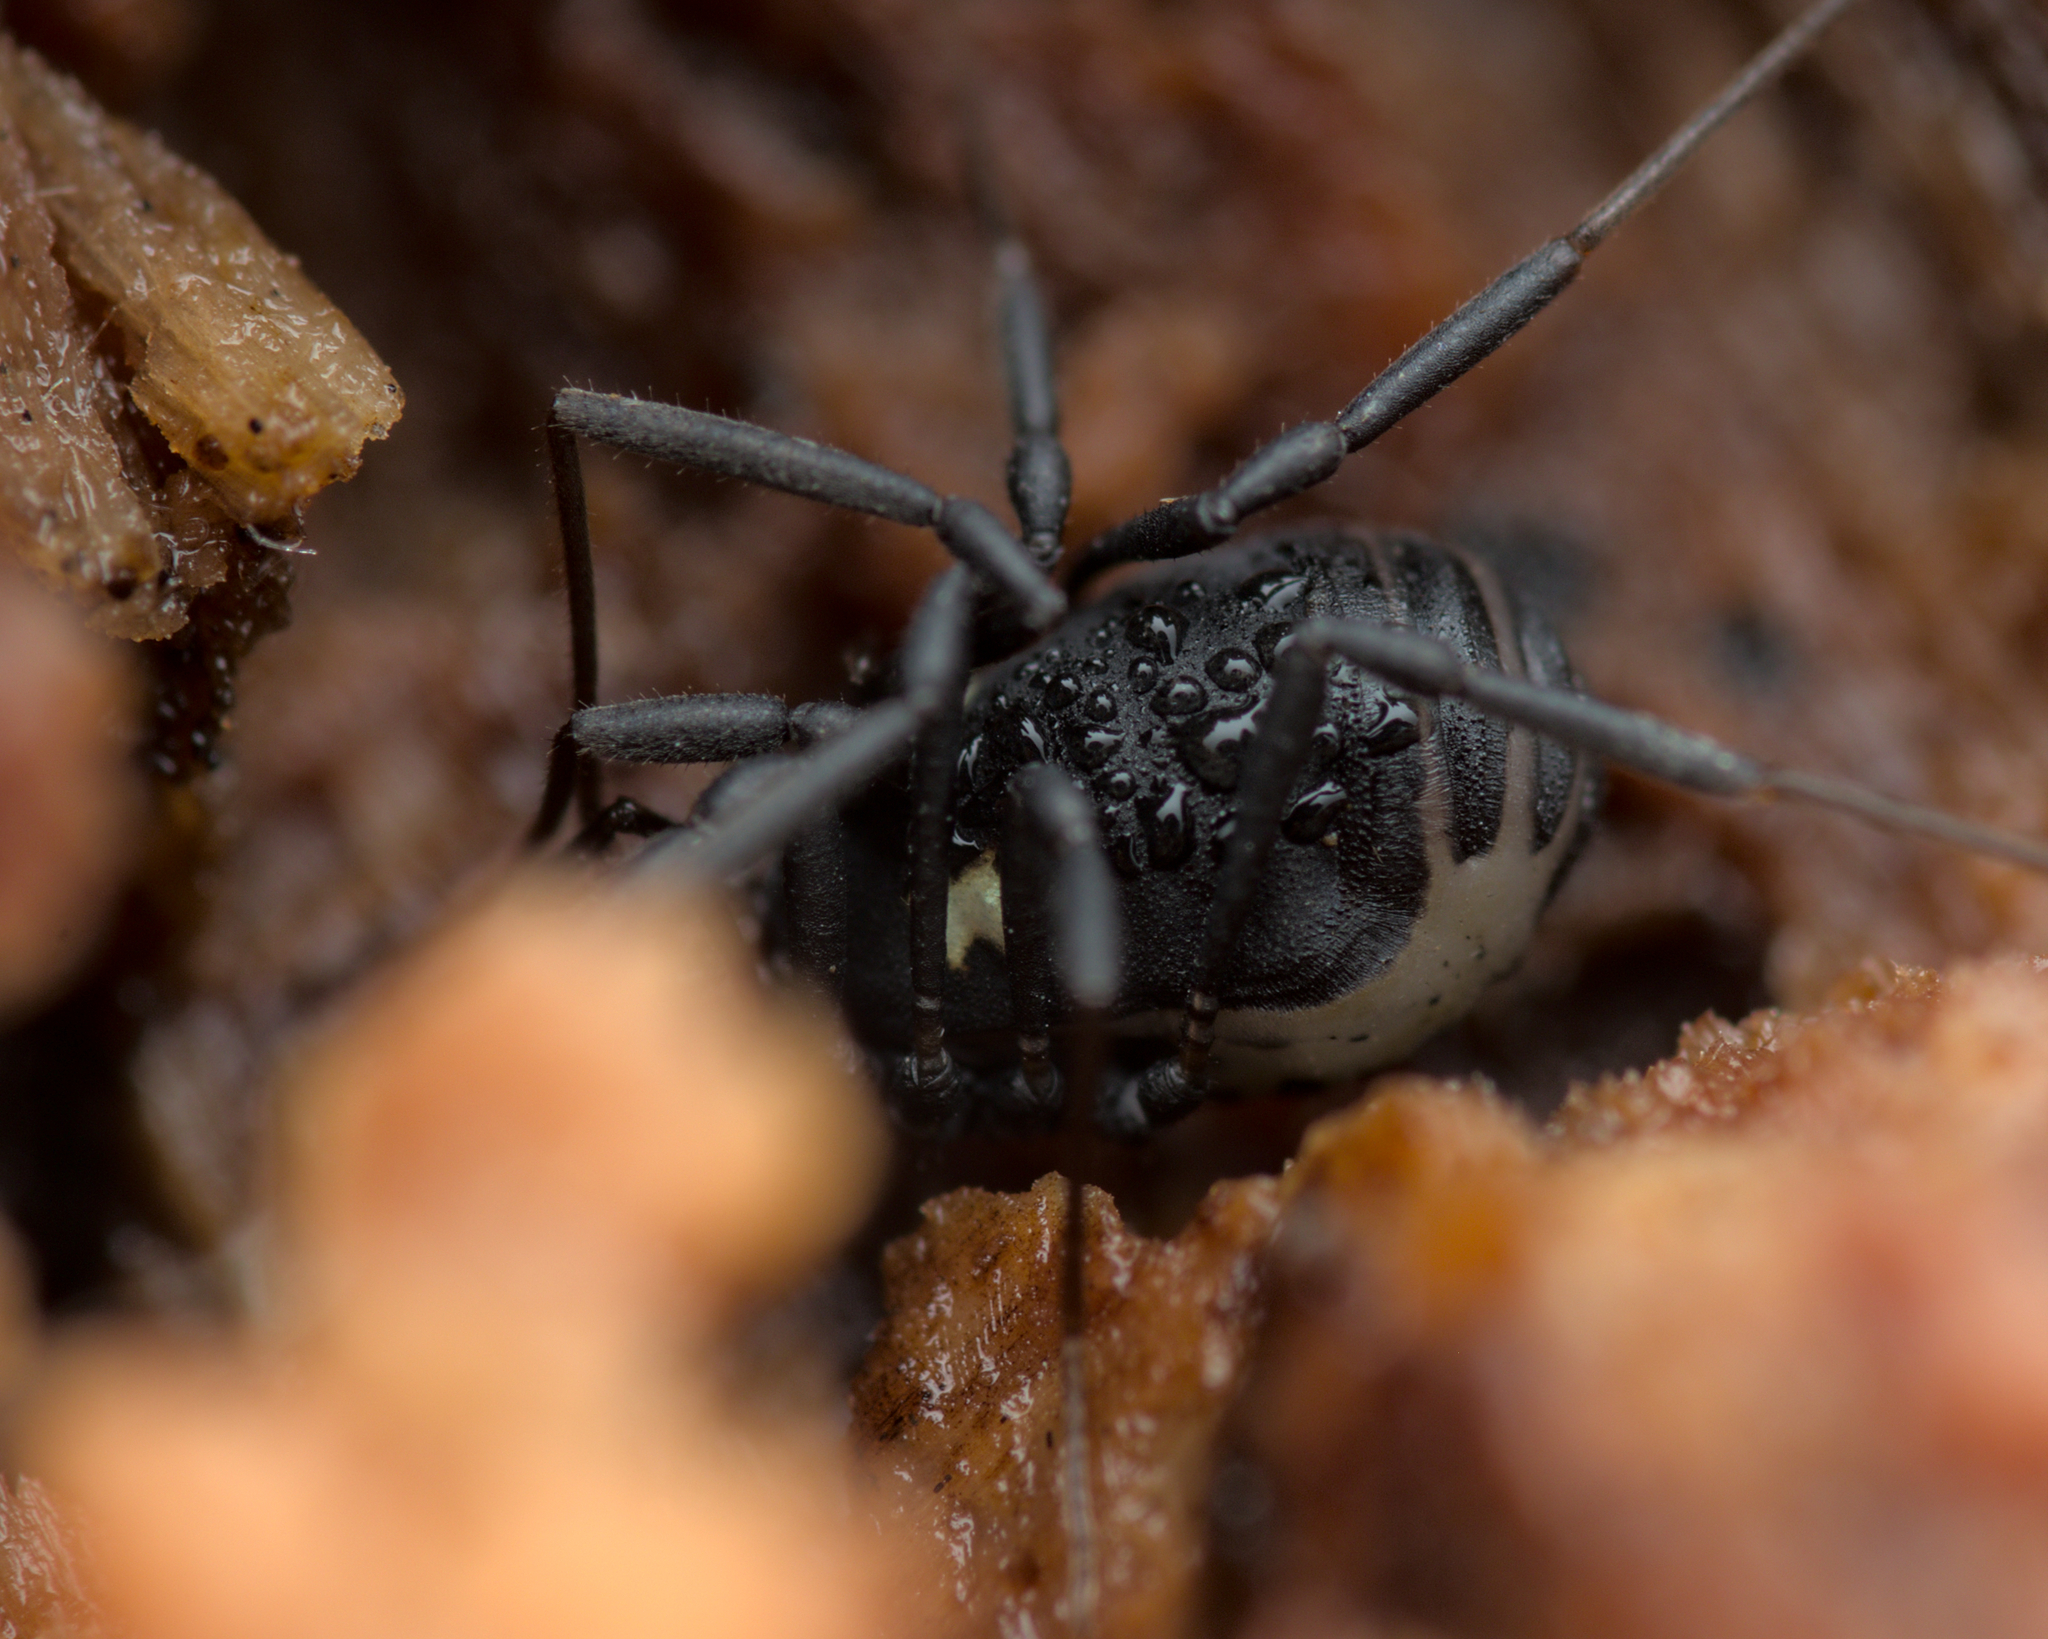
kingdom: Animalia
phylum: Arthropoda
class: Arachnida
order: Opiliones
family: Nemastomatidae
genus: Nemastoma
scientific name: Nemastoma bimaculatum
